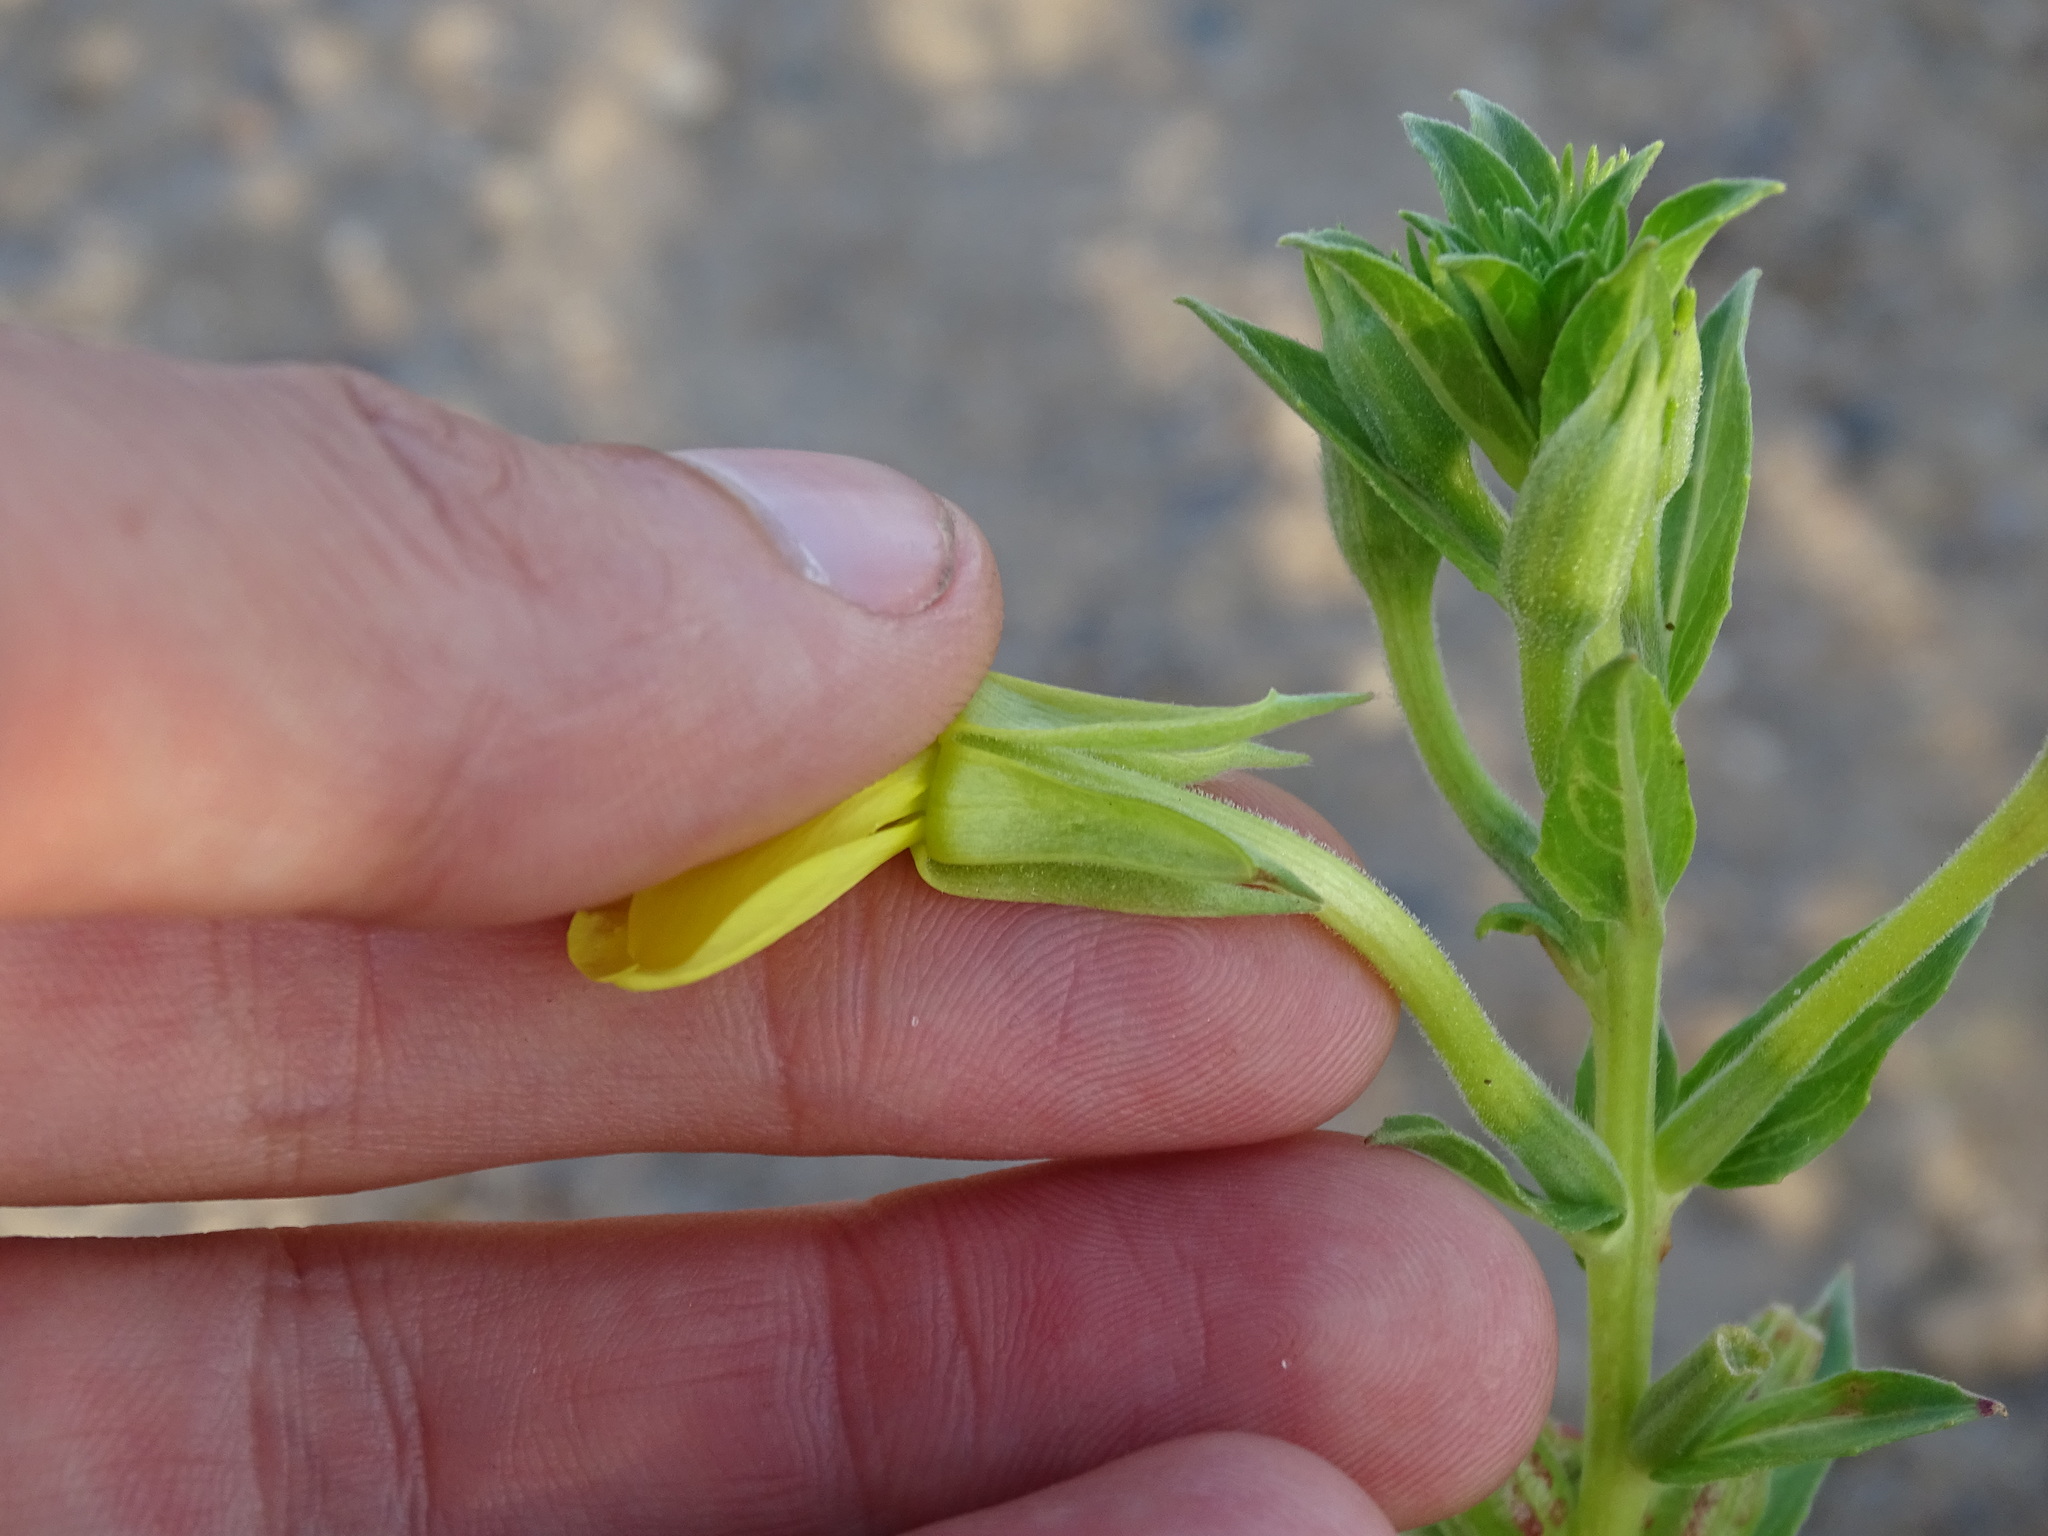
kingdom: Plantae
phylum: Tracheophyta
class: Magnoliopsida
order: Myrtales
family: Onagraceae
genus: Oenothera
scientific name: Oenothera oakesiana
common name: Oakes' evening-primrose
